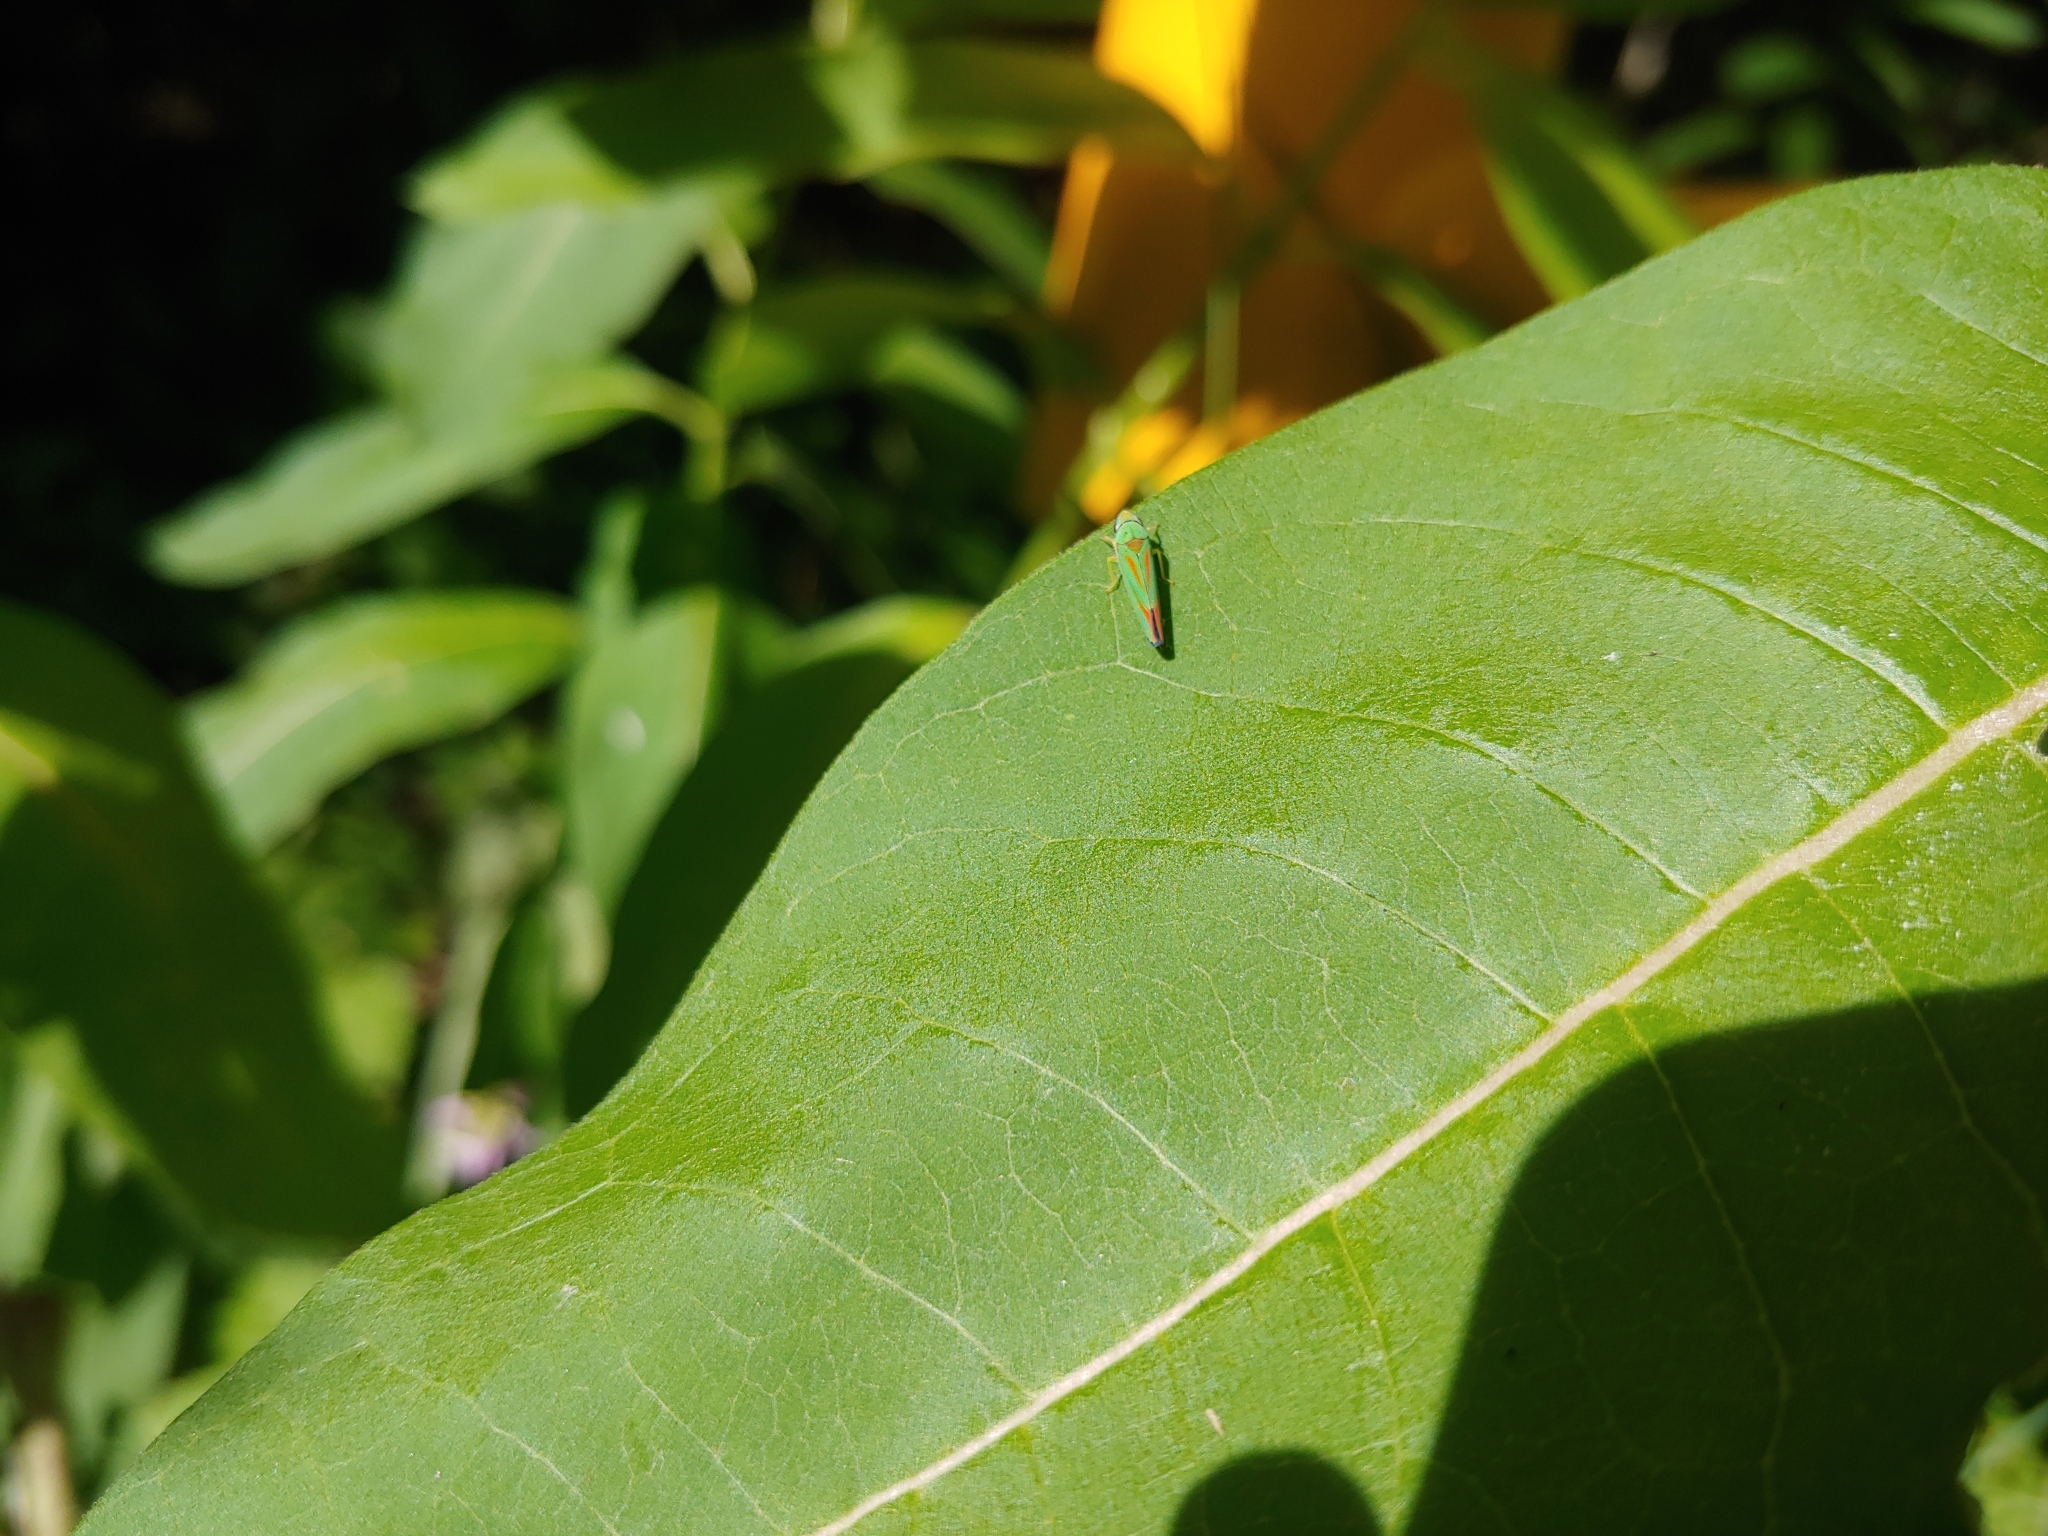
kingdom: Animalia
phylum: Arthropoda
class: Insecta
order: Hemiptera
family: Cicadellidae
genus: Graphocephala
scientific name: Graphocephala fennahi
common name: Rhododendron leafhopper
